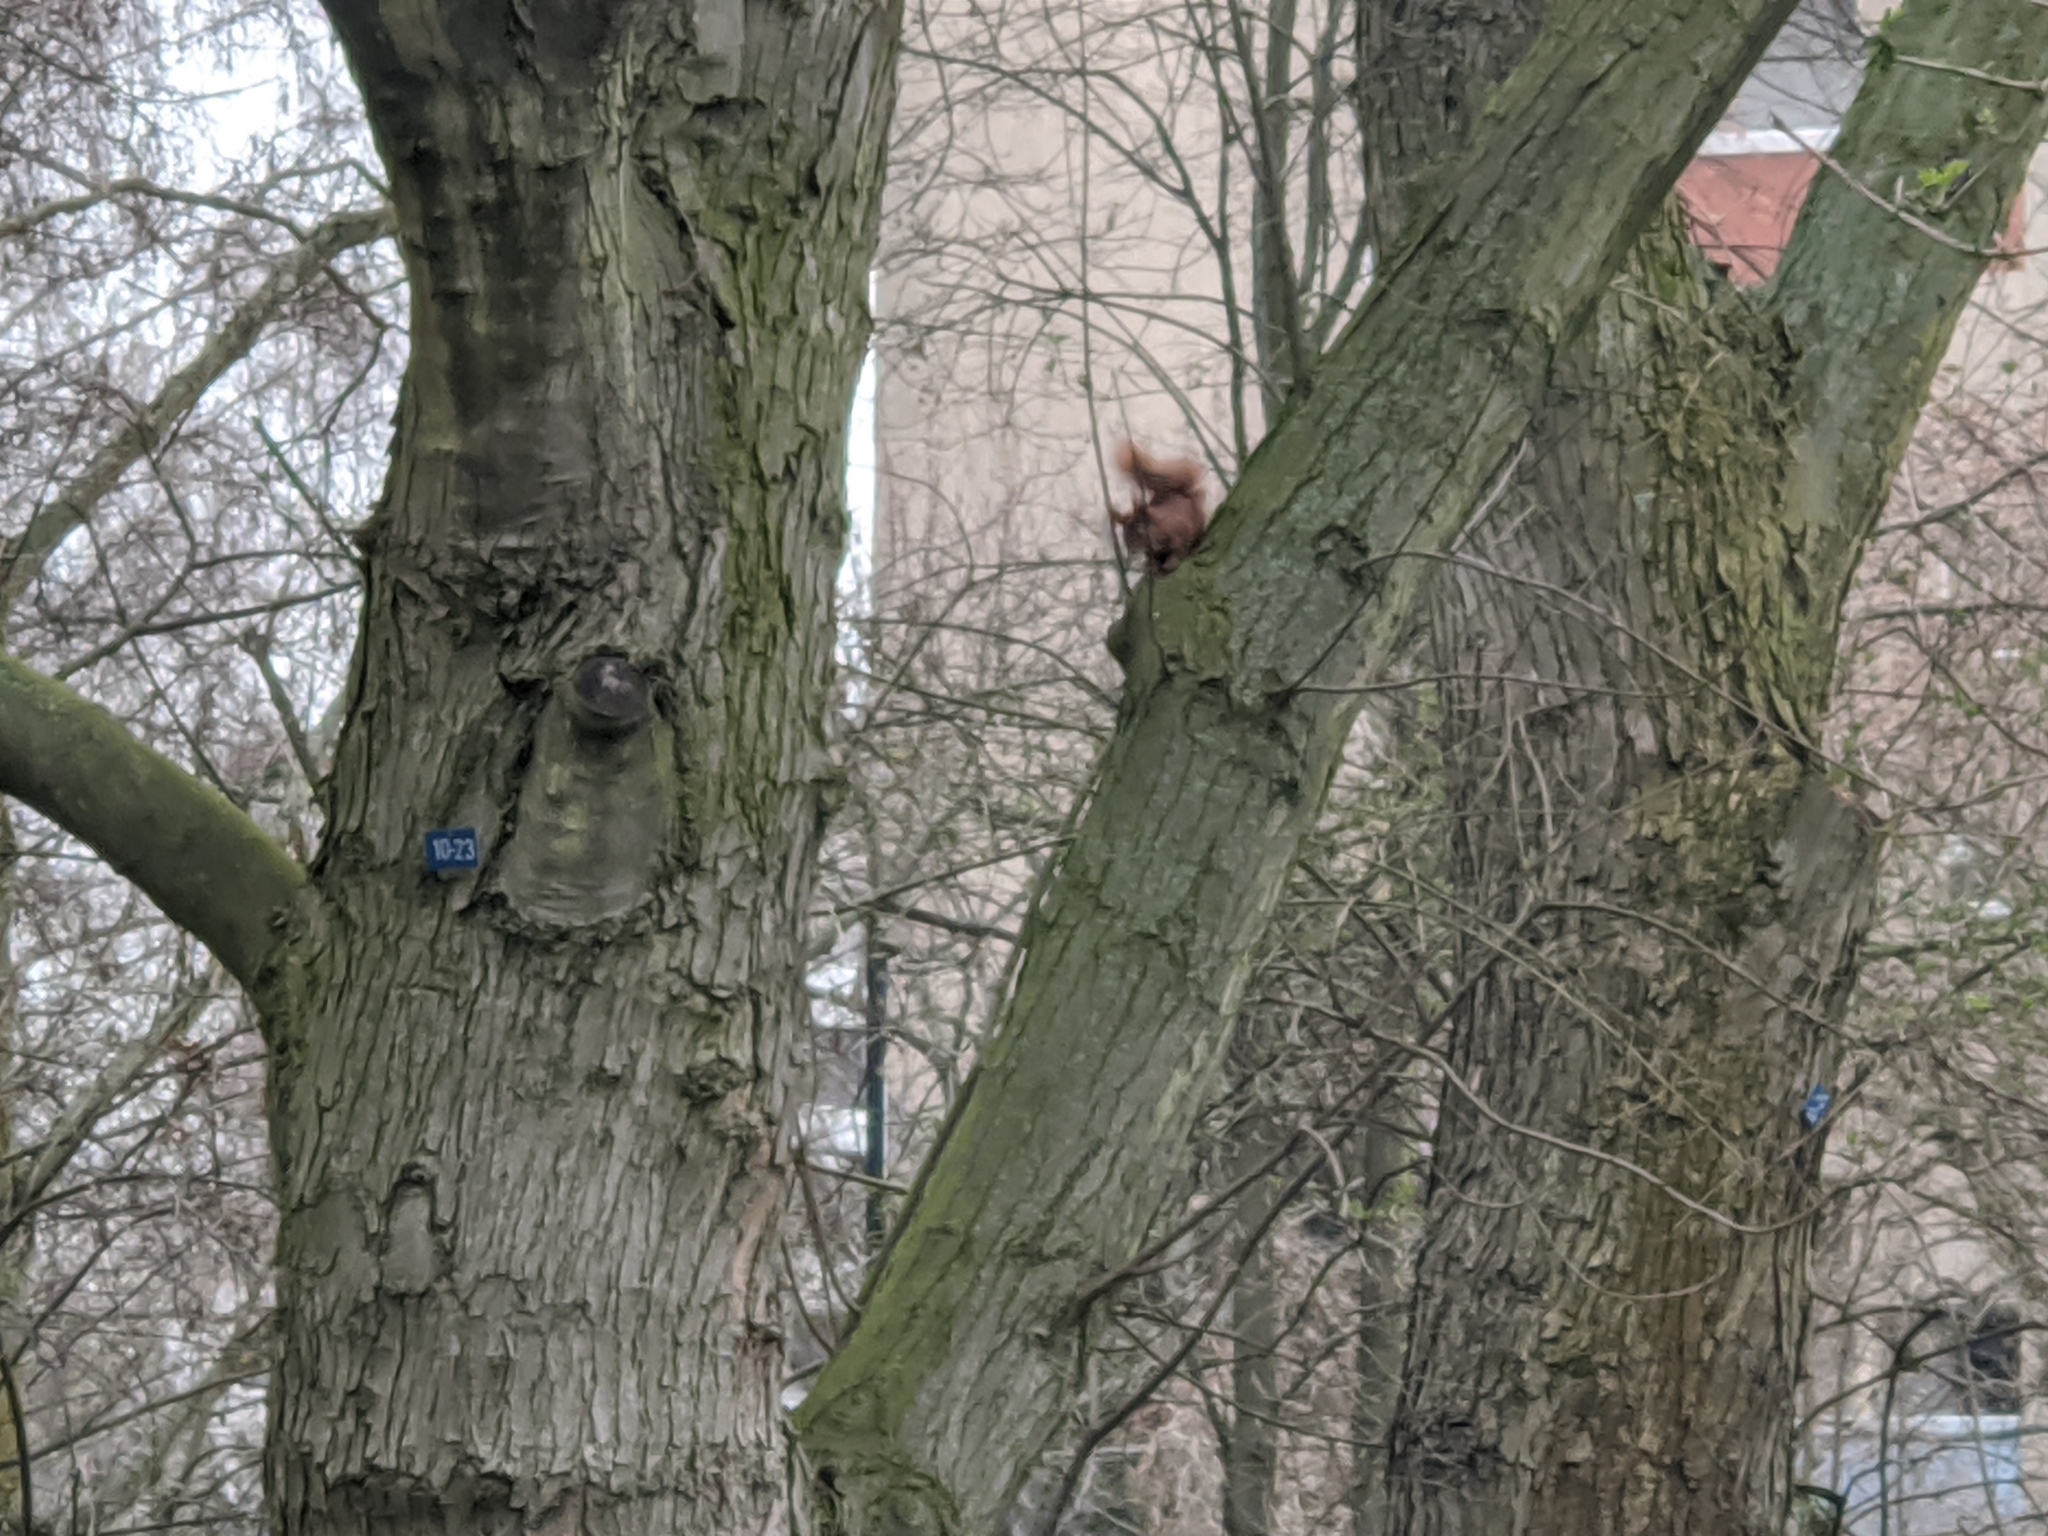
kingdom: Animalia
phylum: Chordata
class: Mammalia
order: Rodentia
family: Sciuridae
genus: Sciurus
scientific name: Sciurus vulgaris
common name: Eurasian red squirrel
